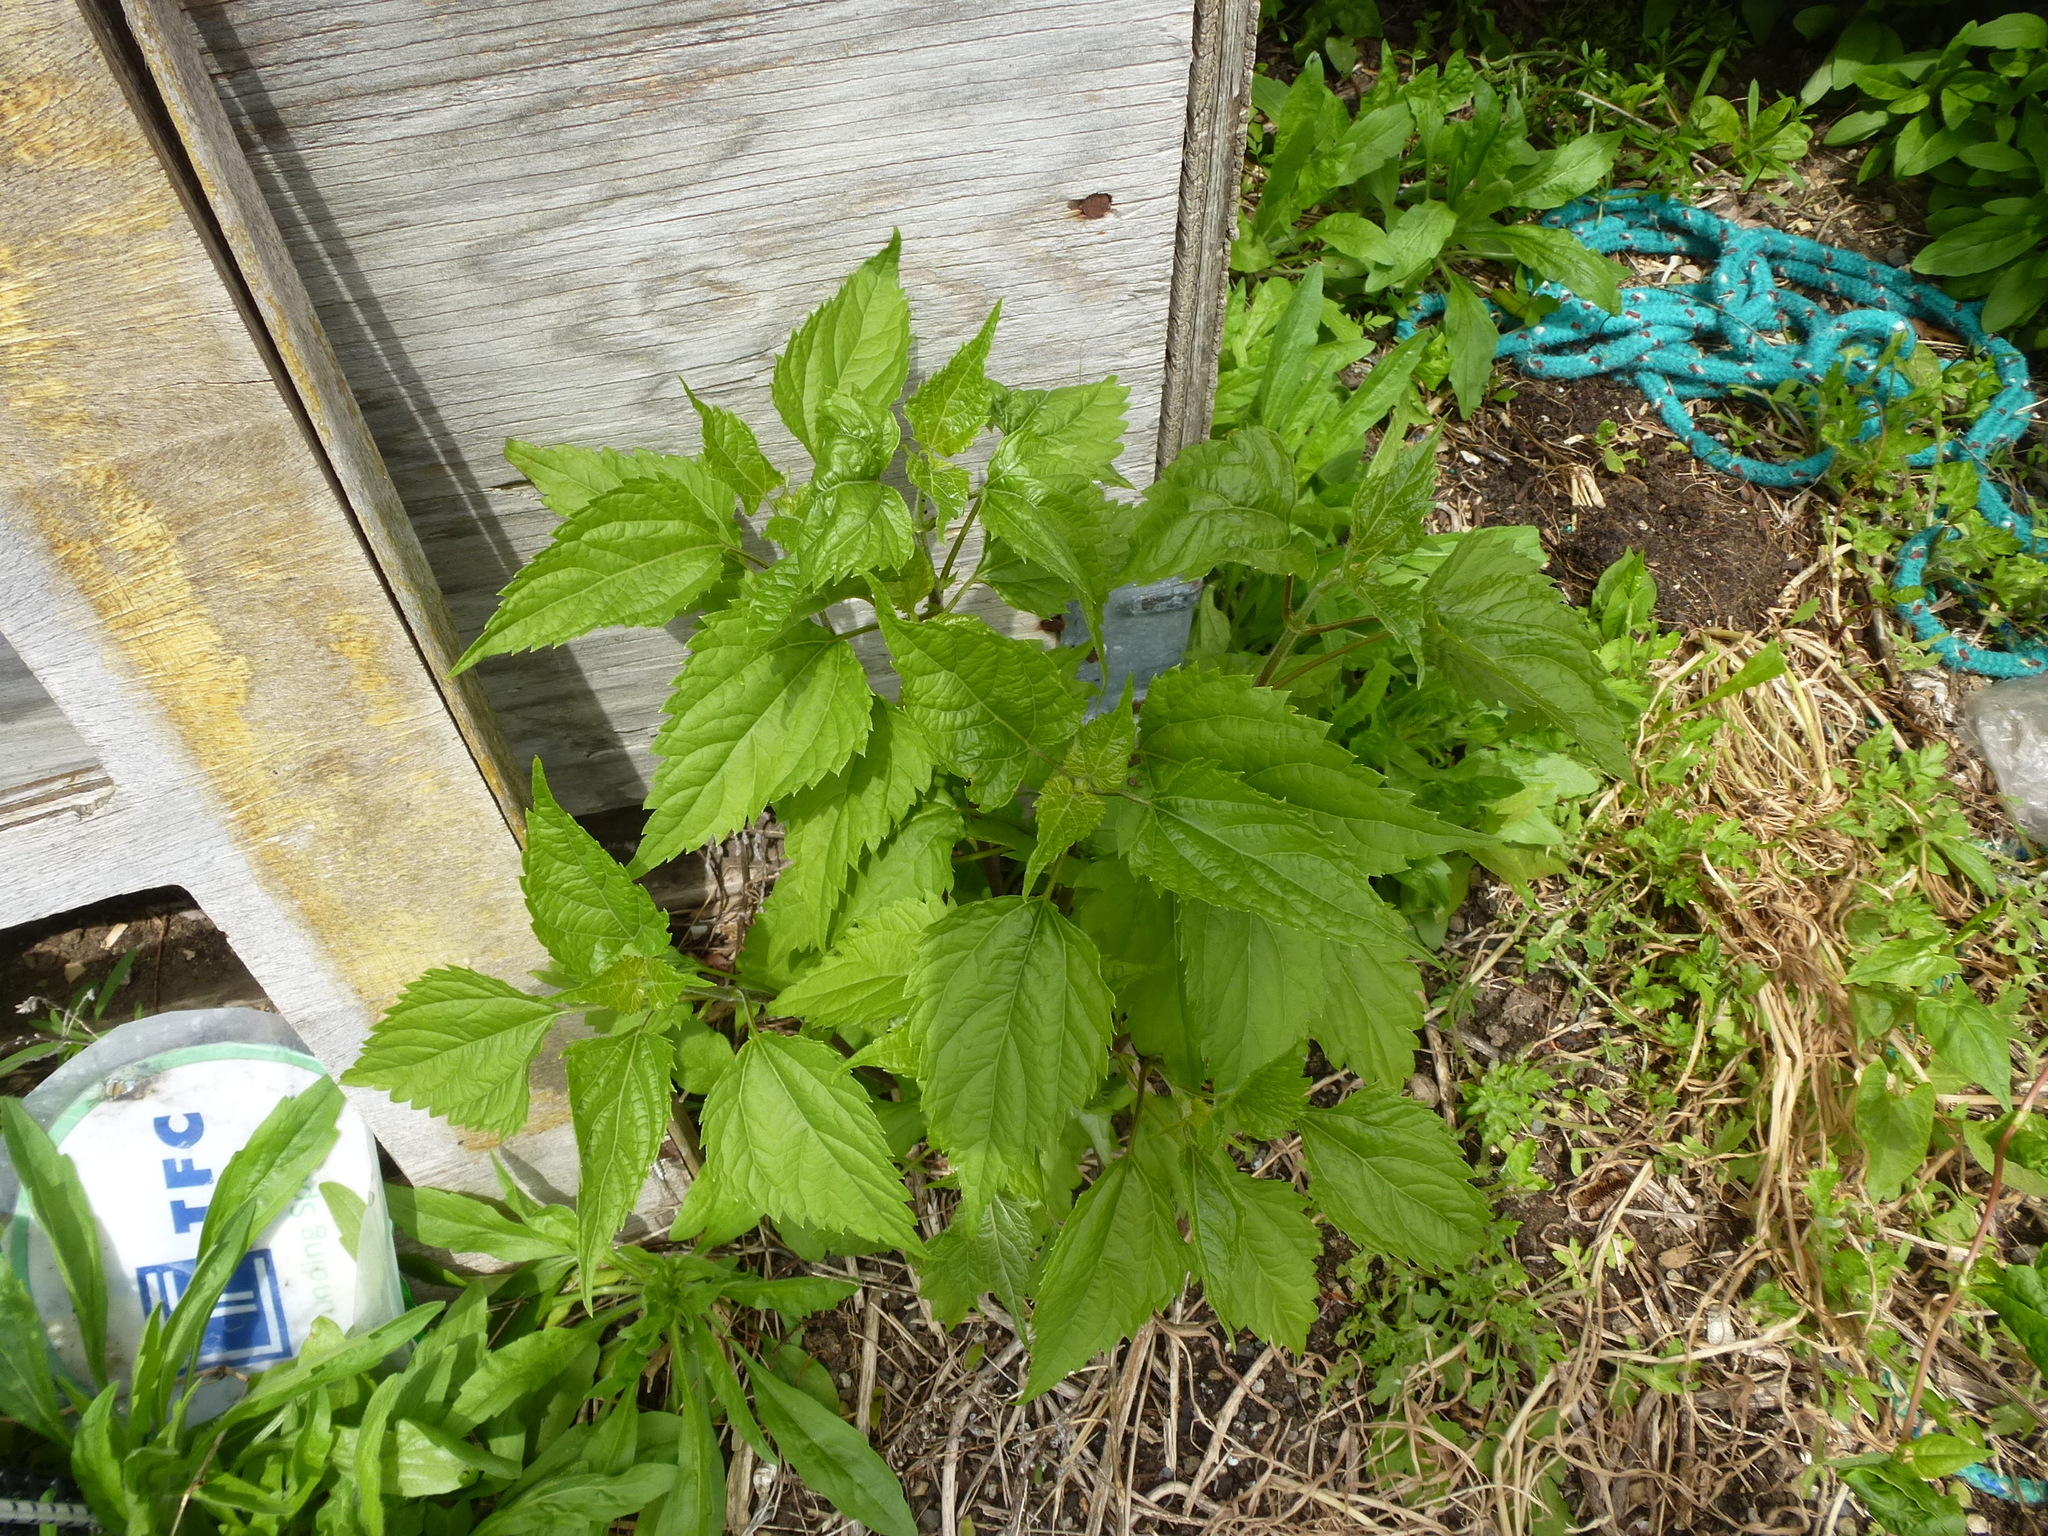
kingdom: Plantae
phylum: Tracheophyta
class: Magnoliopsida
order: Asterales
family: Asteraceae
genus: Ageratina
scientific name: Ageratina altissima
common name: White snakeroot
